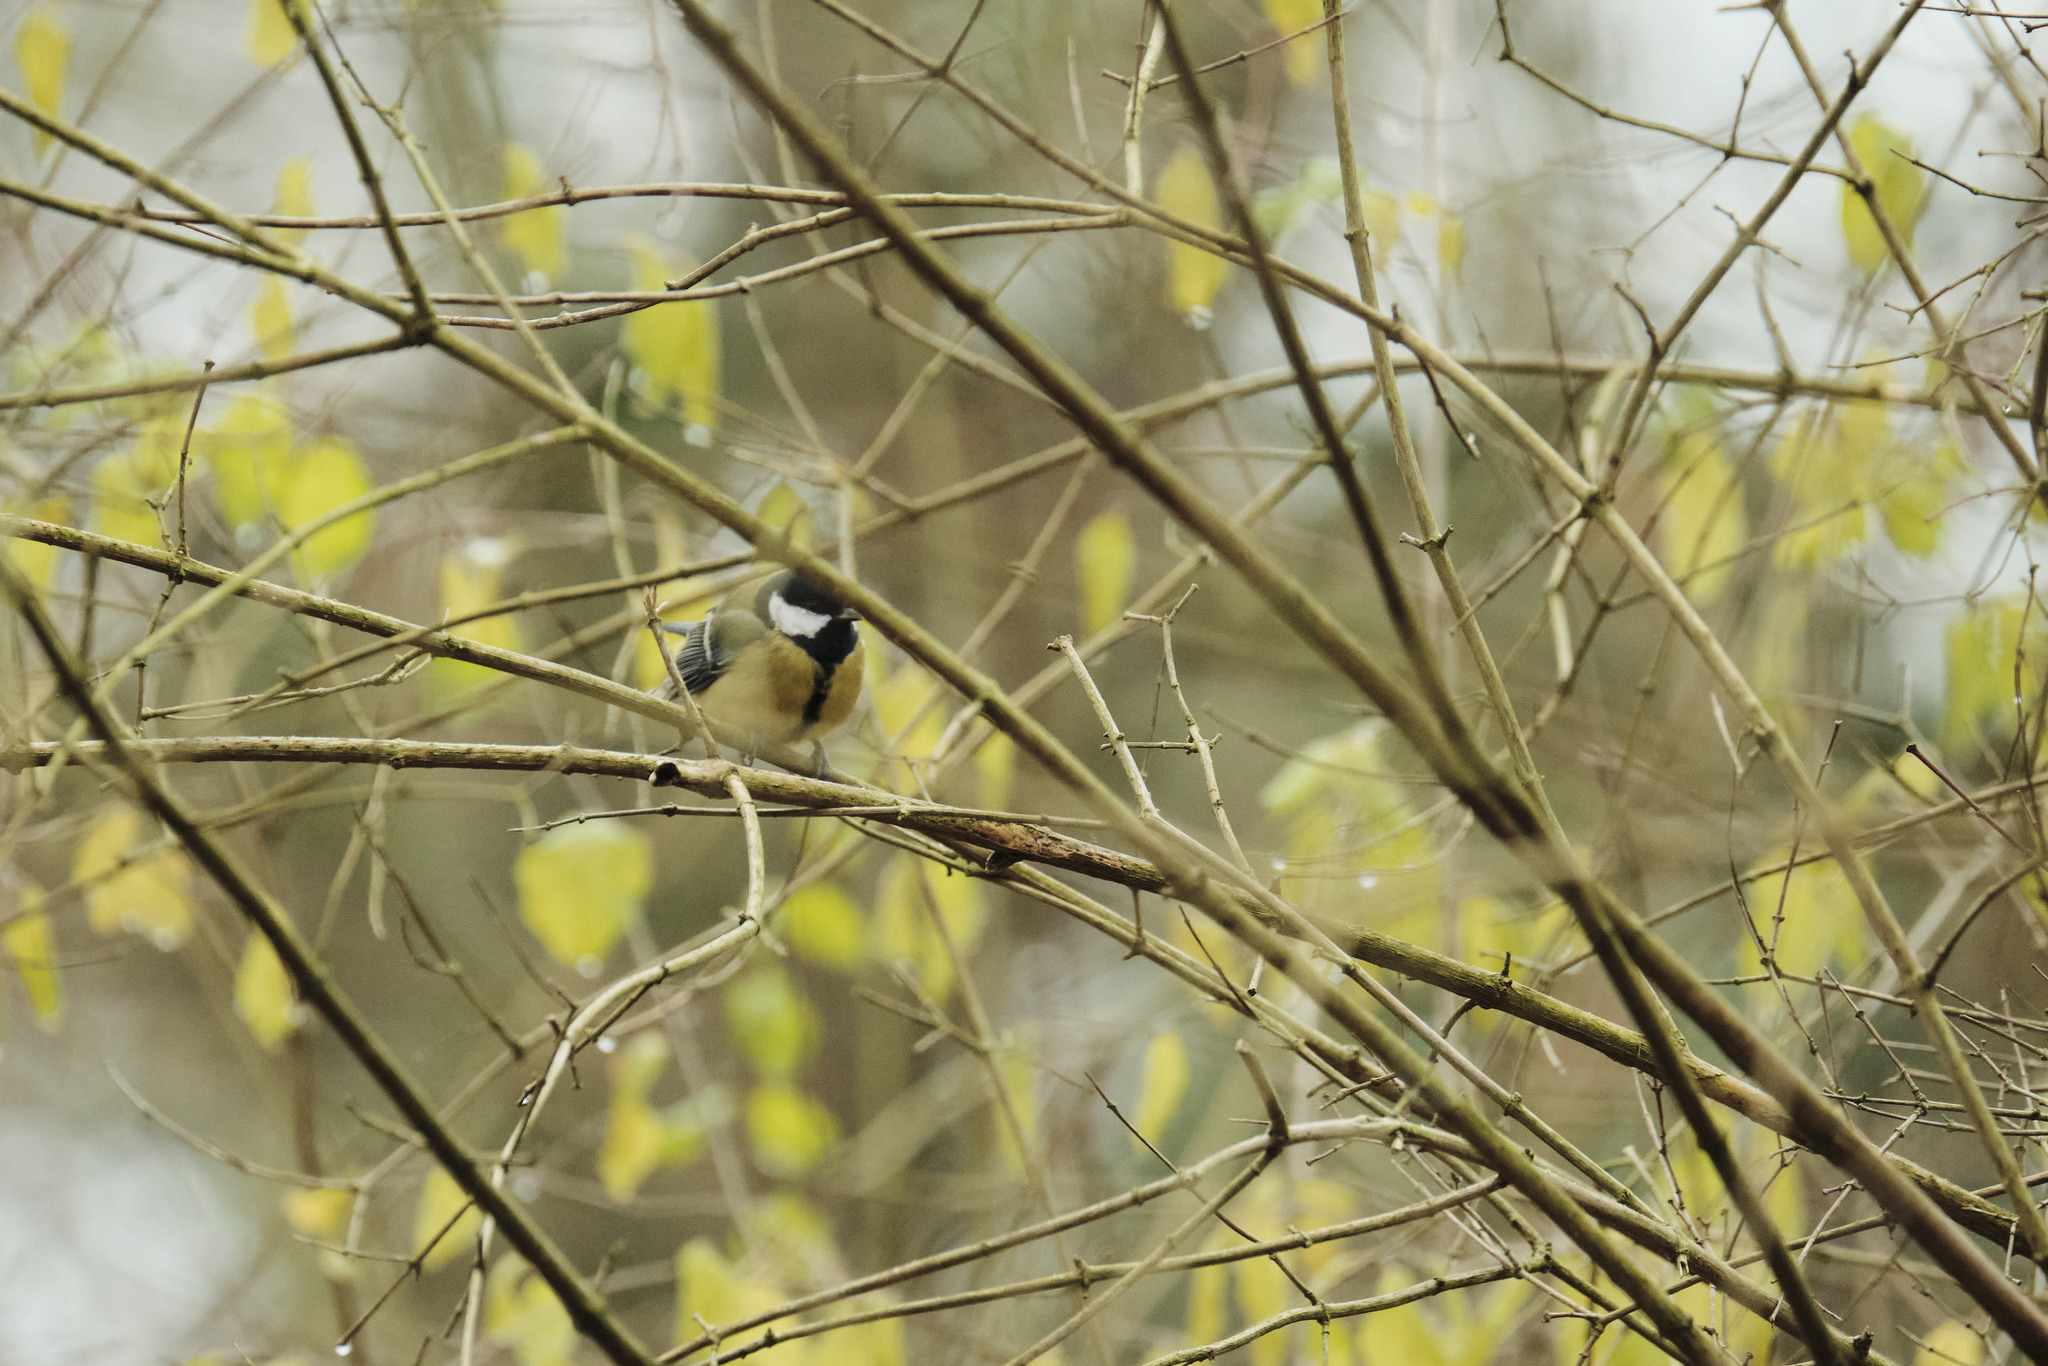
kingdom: Animalia
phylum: Chordata
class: Aves
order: Passeriformes
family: Paridae
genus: Parus
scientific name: Parus major
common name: Great tit
